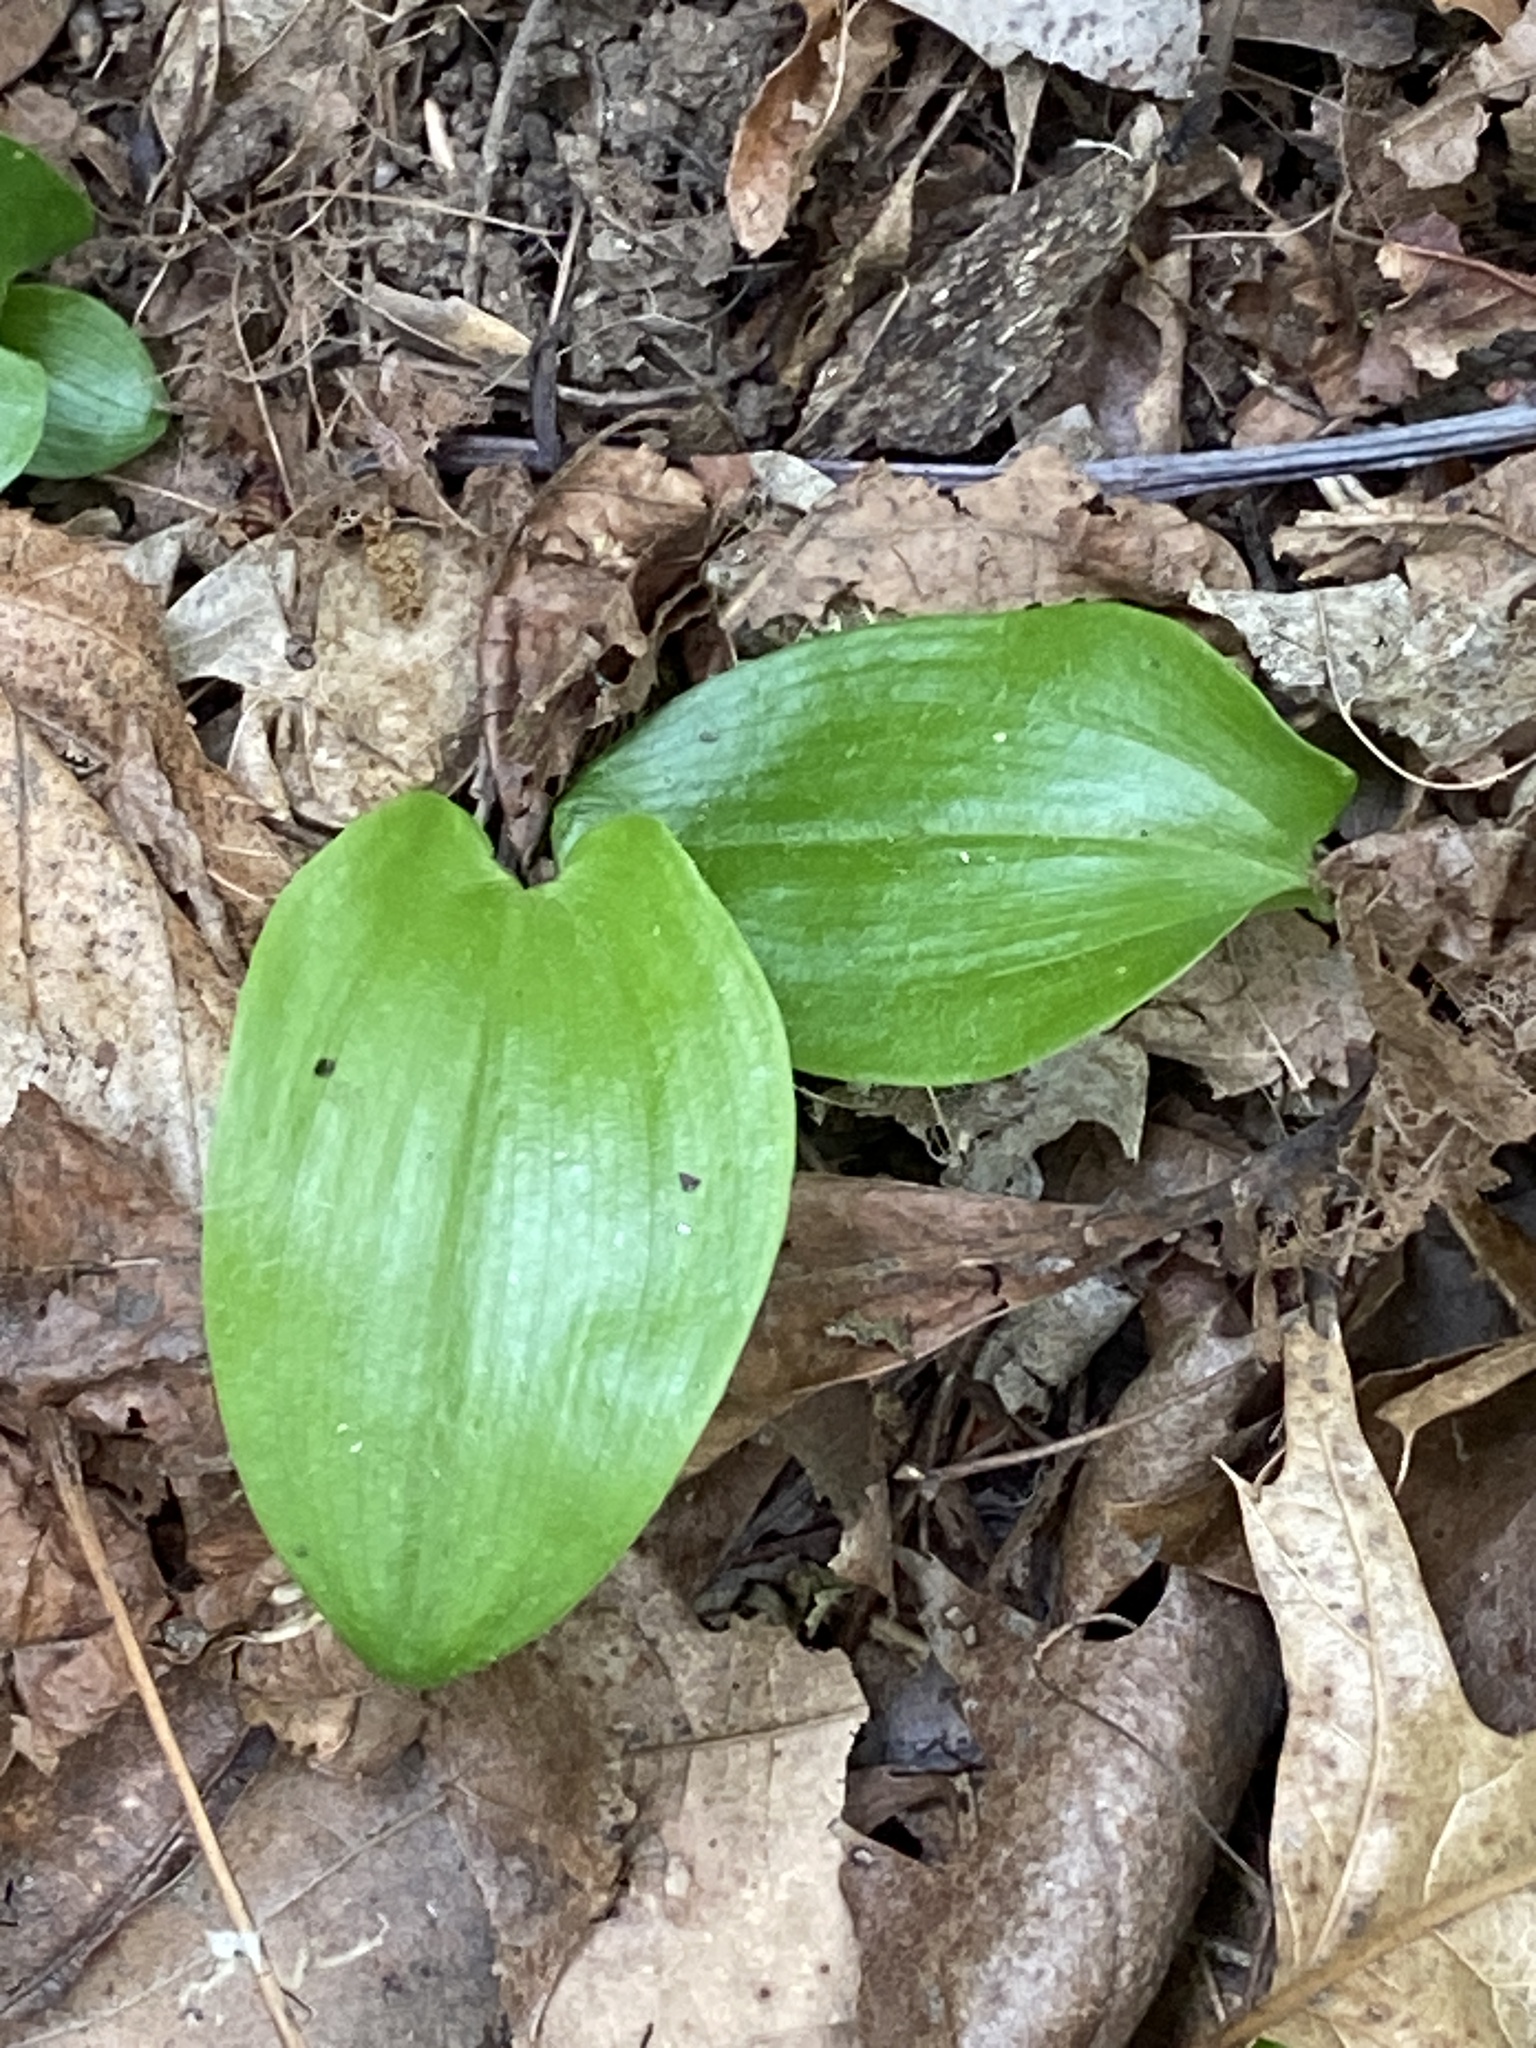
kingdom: Plantae
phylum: Tracheophyta
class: Liliopsida
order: Asparagales
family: Asparagaceae
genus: Maianthemum
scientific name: Maianthemum canadense
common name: False lily-of-the-valley
